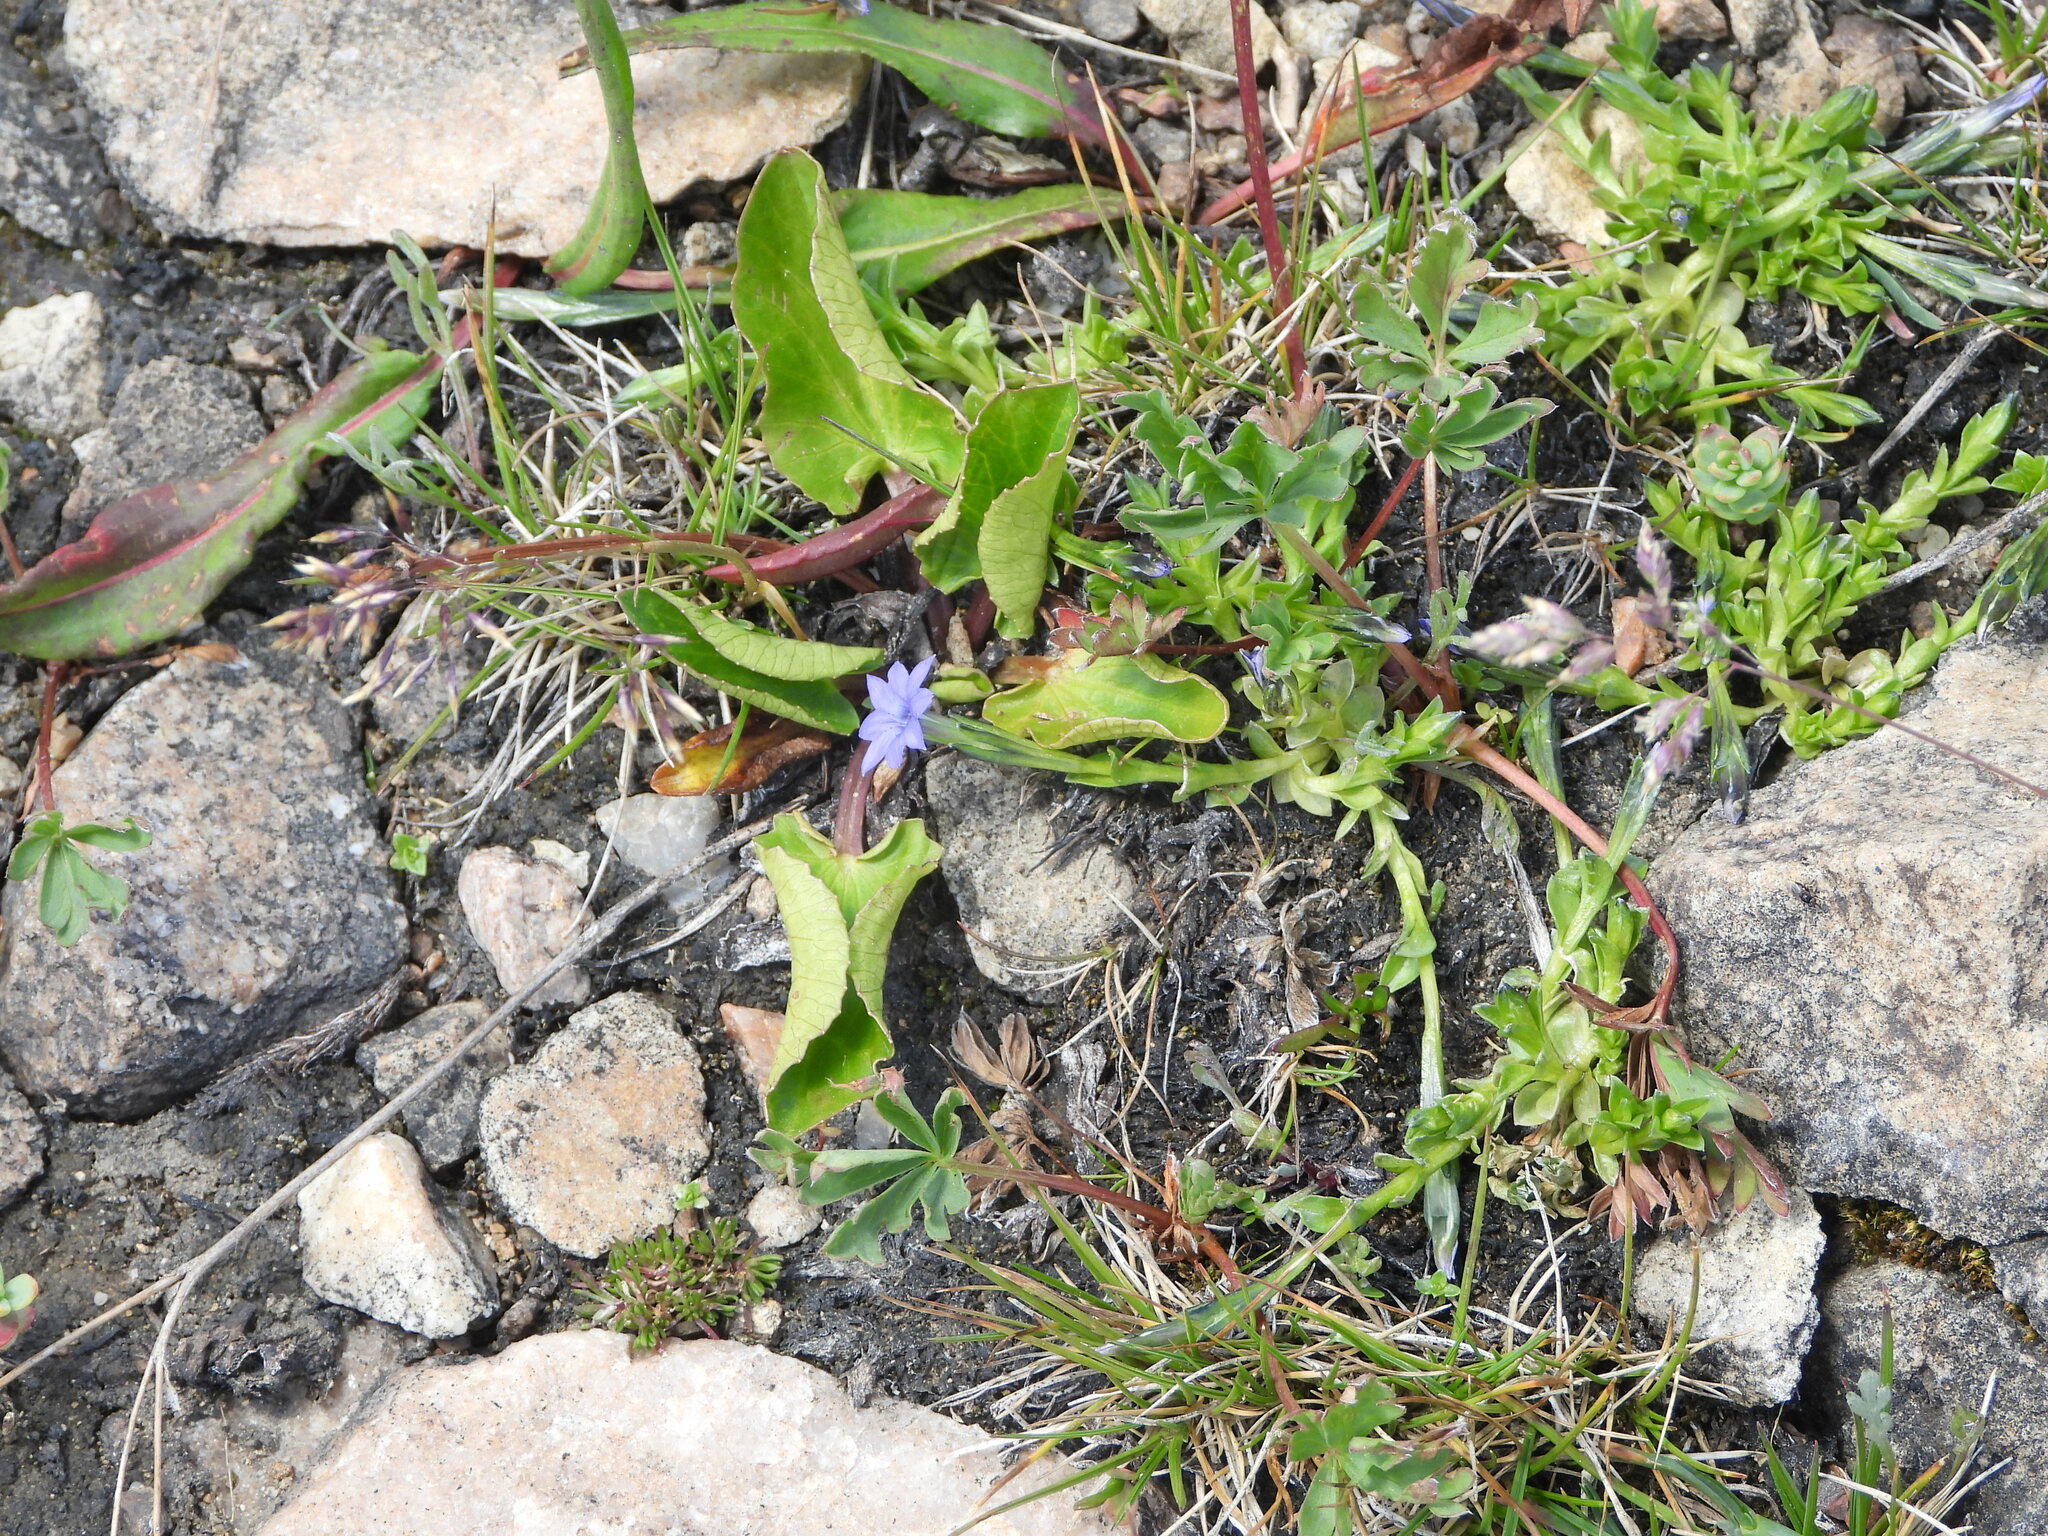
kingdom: Plantae
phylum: Tracheophyta
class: Magnoliopsida
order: Gentianales
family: Gentianaceae
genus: Gentiana
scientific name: Gentiana prostrata
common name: Moss gentian
